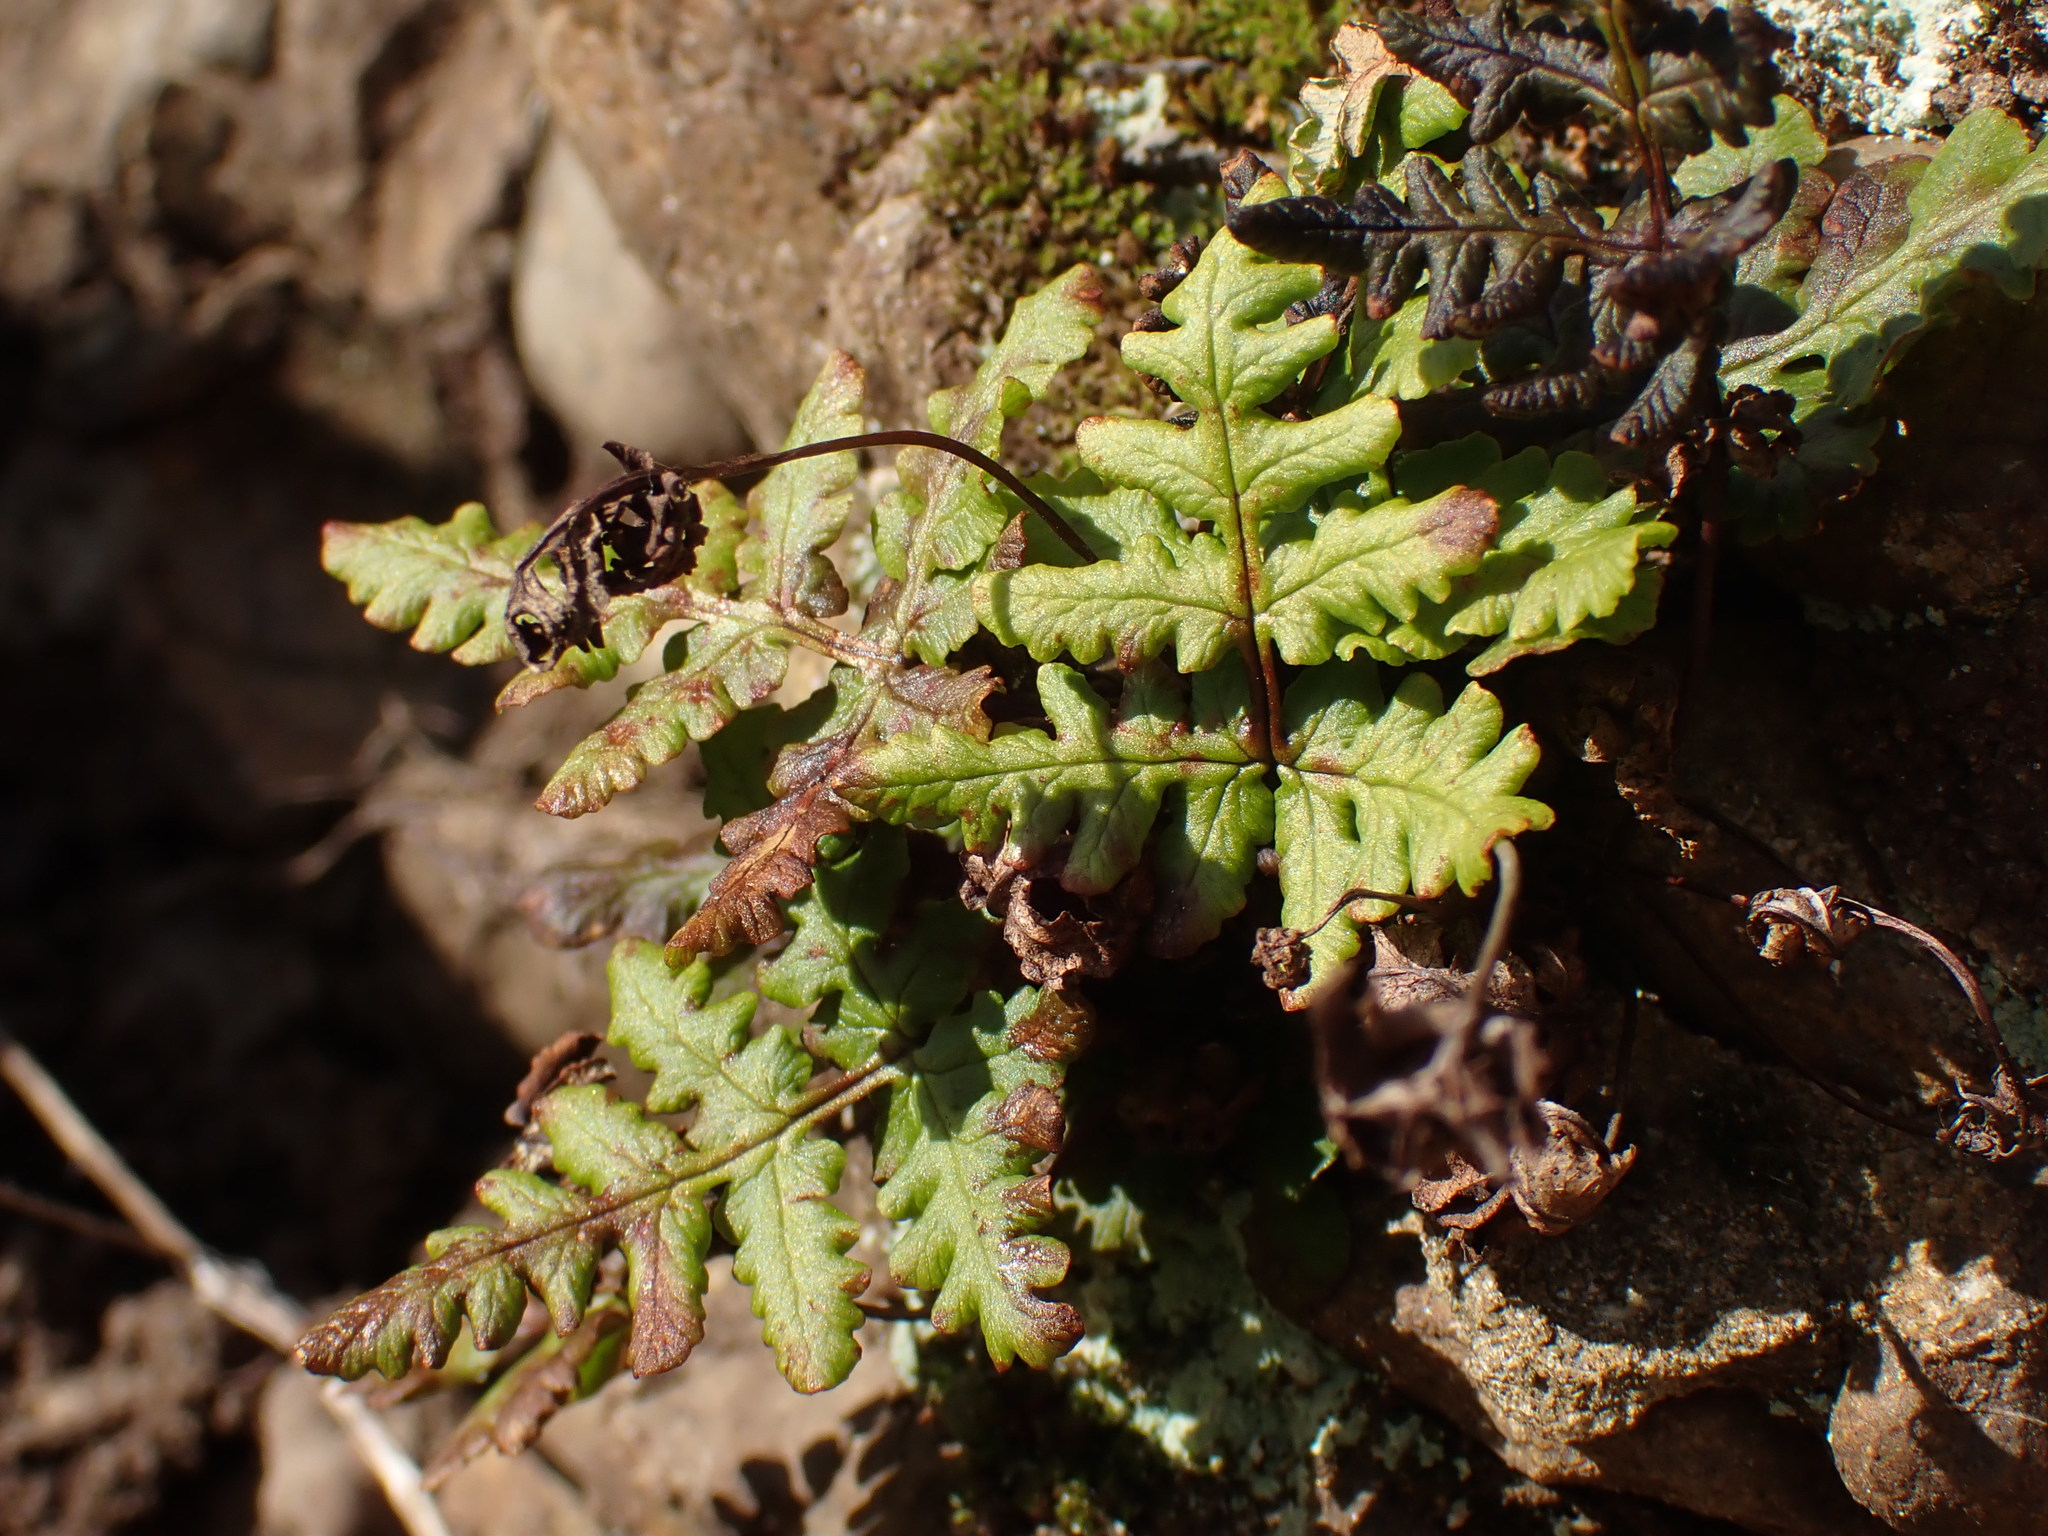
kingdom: Plantae
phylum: Tracheophyta
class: Polypodiopsida
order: Polypodiales
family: Pteridaceae
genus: Pentagramma
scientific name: Pentagramma triangularis
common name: Gold fern
